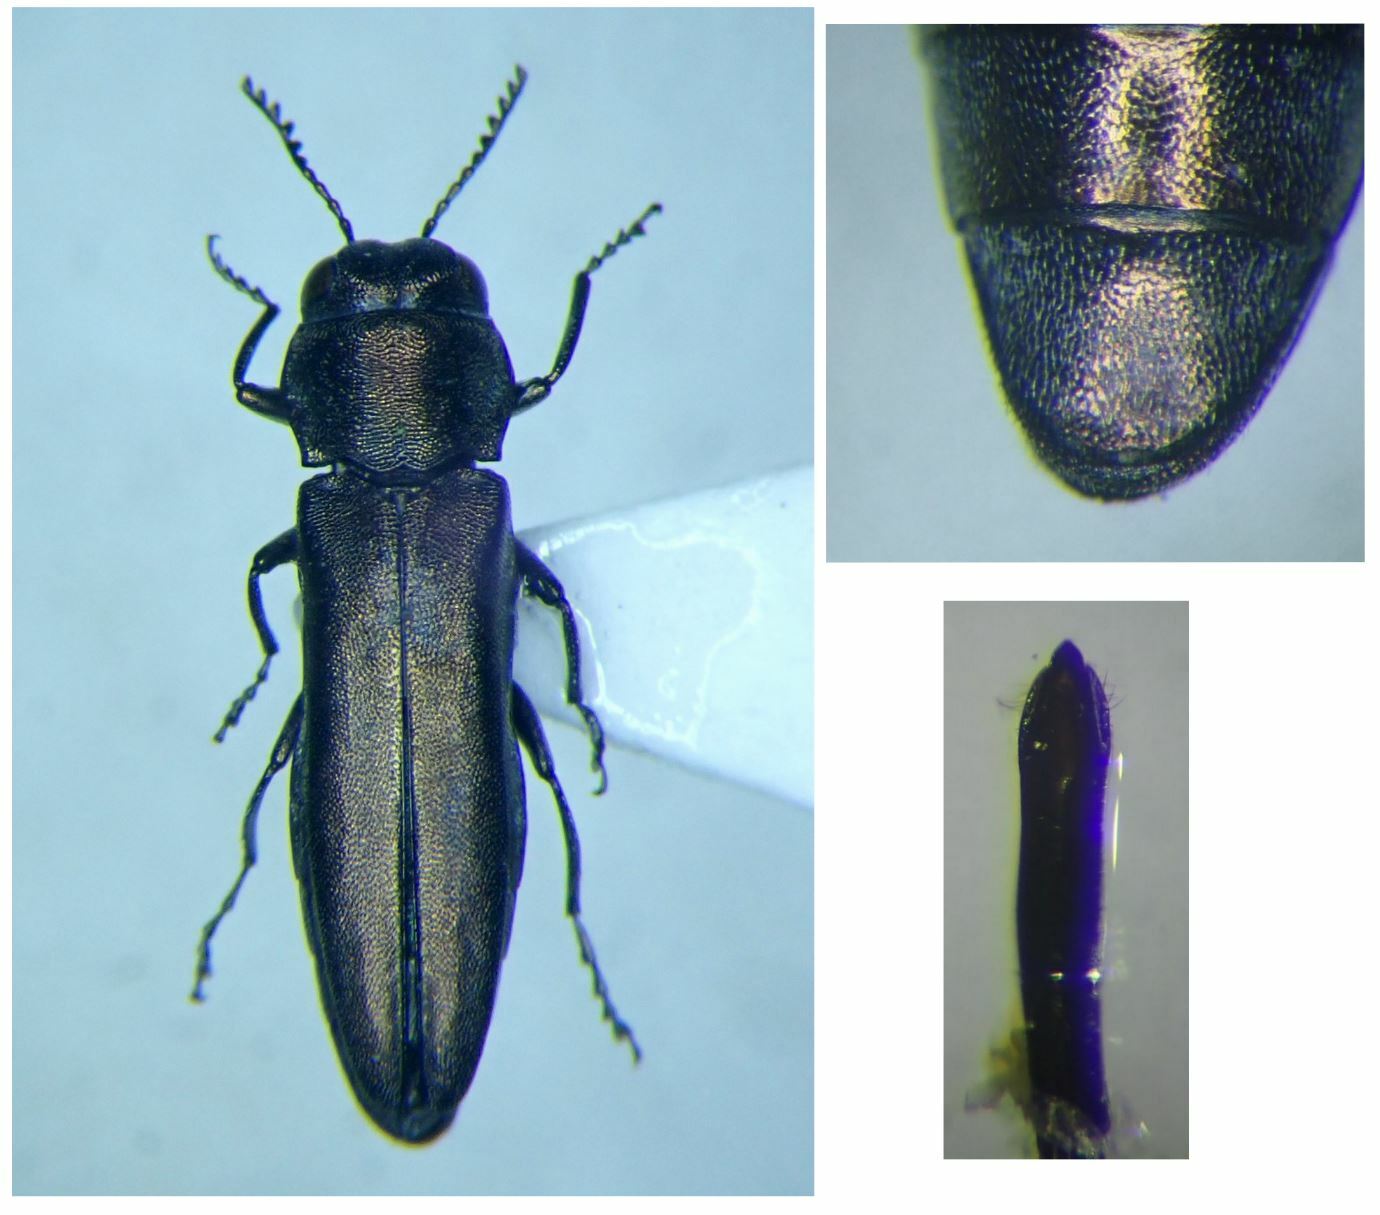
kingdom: Animalia
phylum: Arthropoda
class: Insecta
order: Coleoptera
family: Buprestidae
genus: Agrilus
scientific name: Agrilus albogularis
